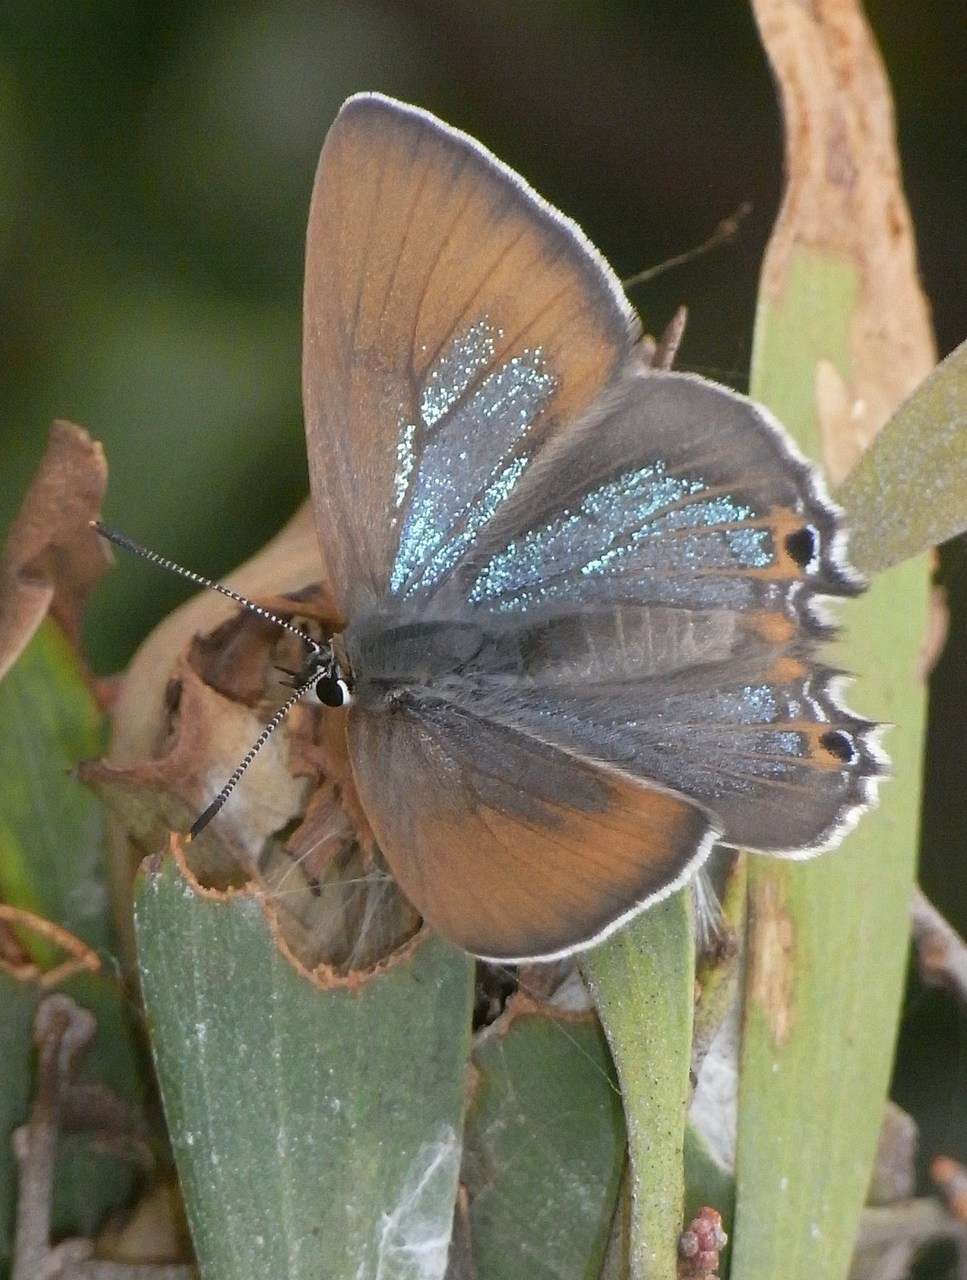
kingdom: Animalia
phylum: Arthropoda
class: Insecta
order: Lepidoptera
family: Lycaenidae
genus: Jalmenus
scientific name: Jalmenus icilius
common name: Amethyst hairstreak
